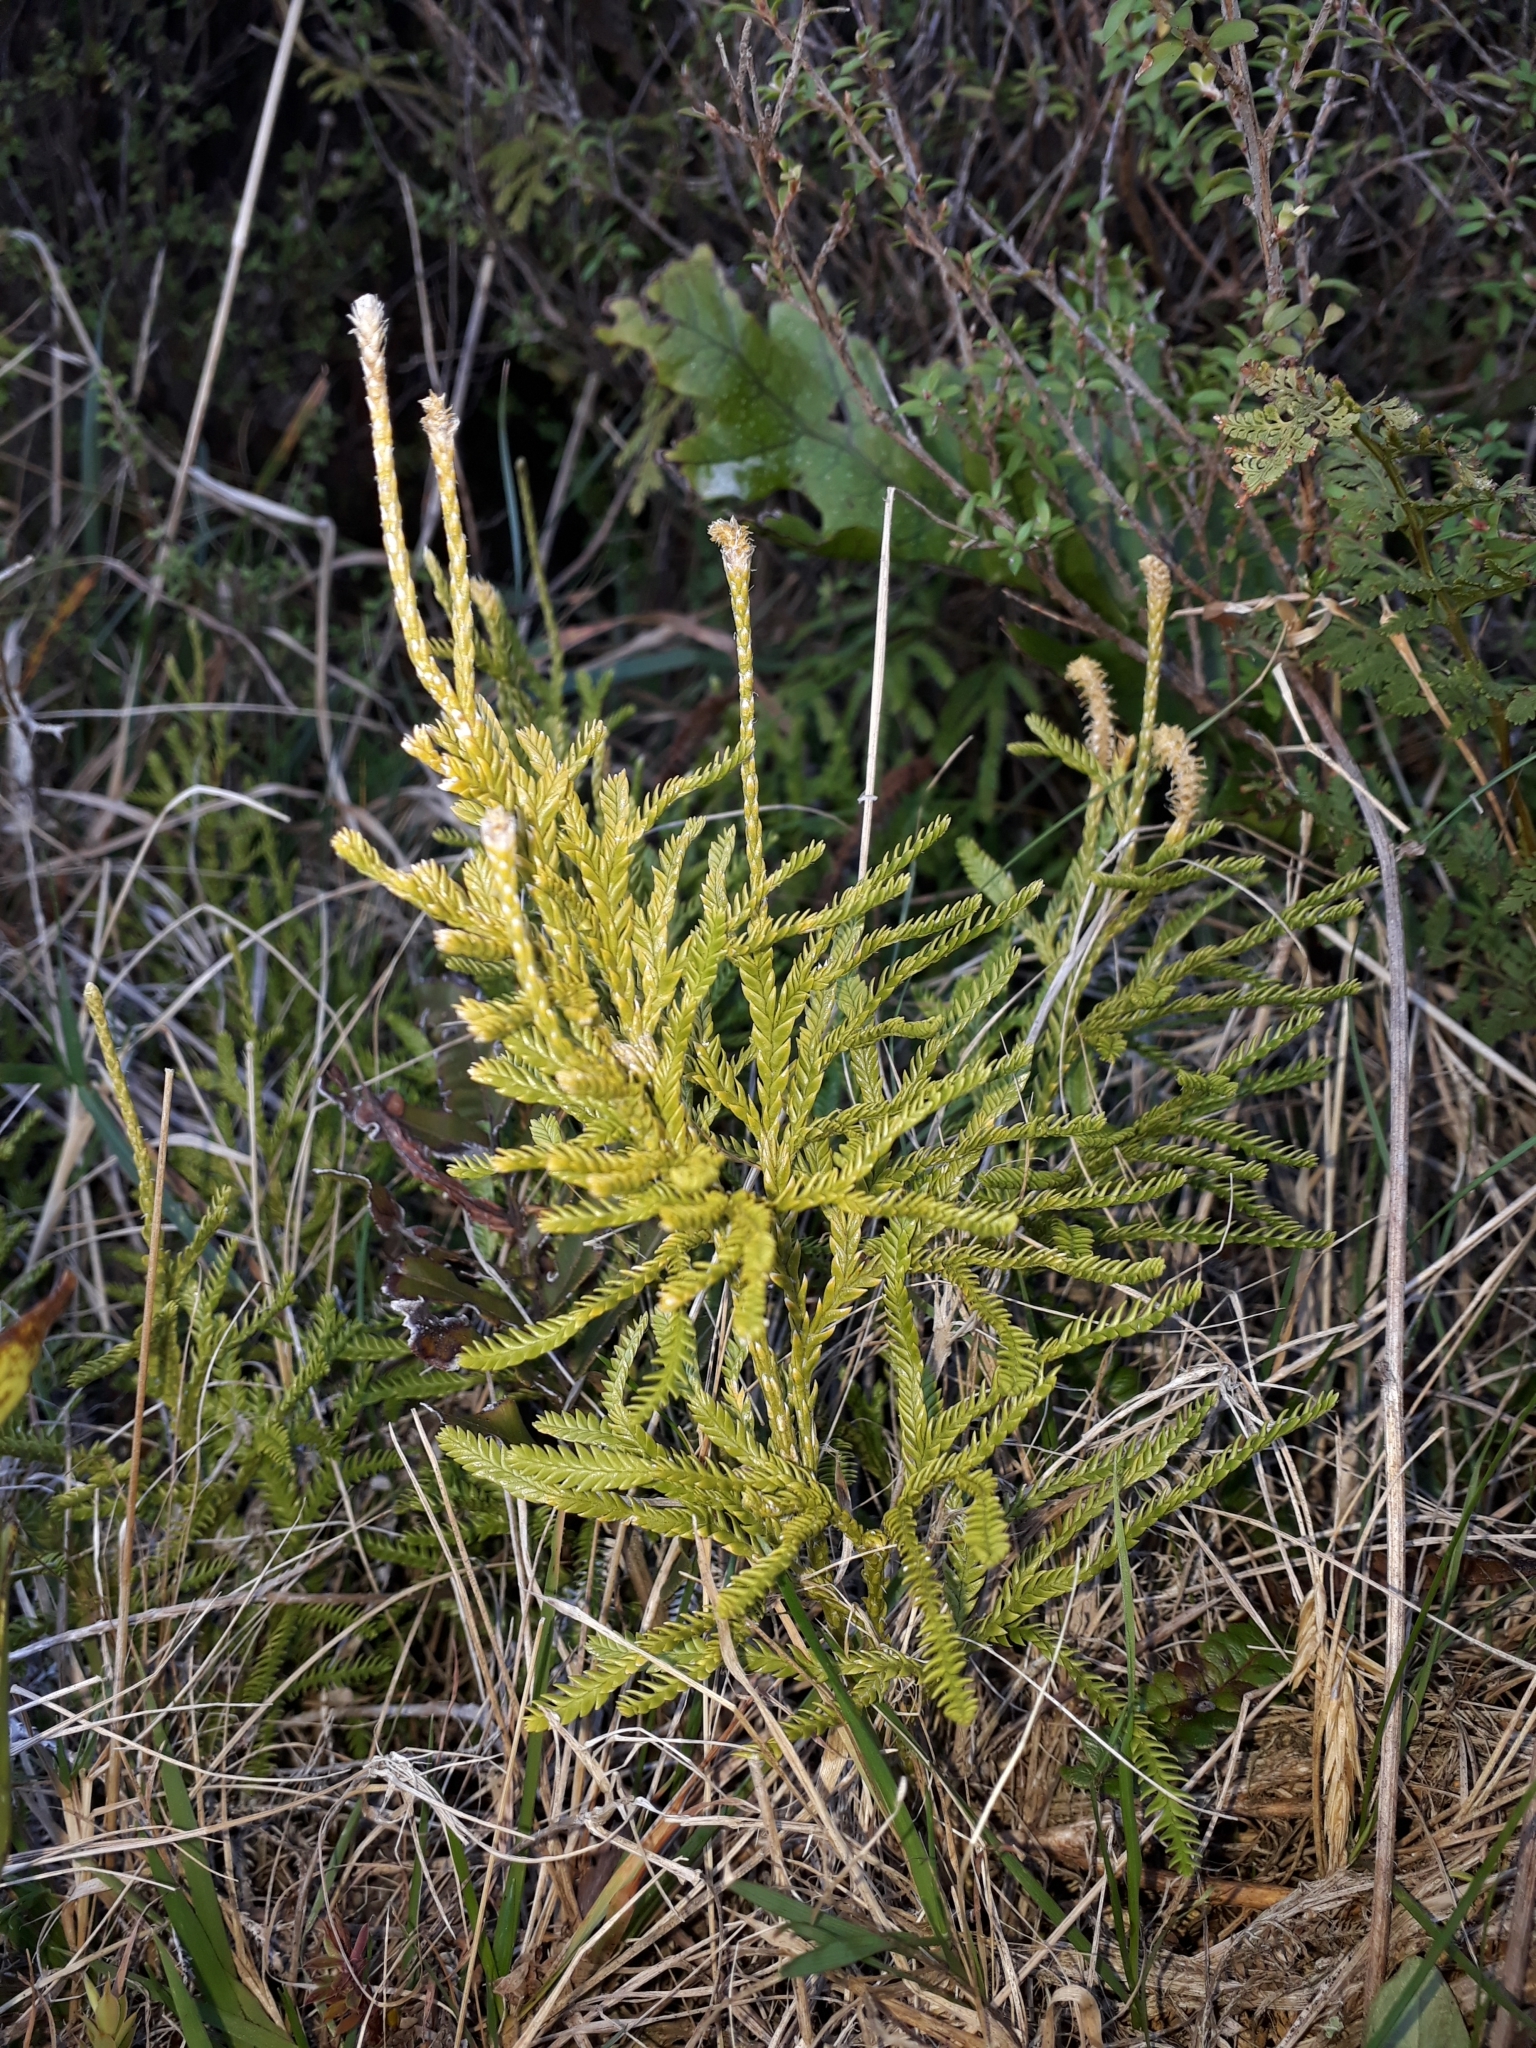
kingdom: Plantae
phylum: Tracheophyta
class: Lycopodiopsida
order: Lycopodiales
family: Lycopodiaceae
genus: Diphasium
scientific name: Diphasium scariosum
